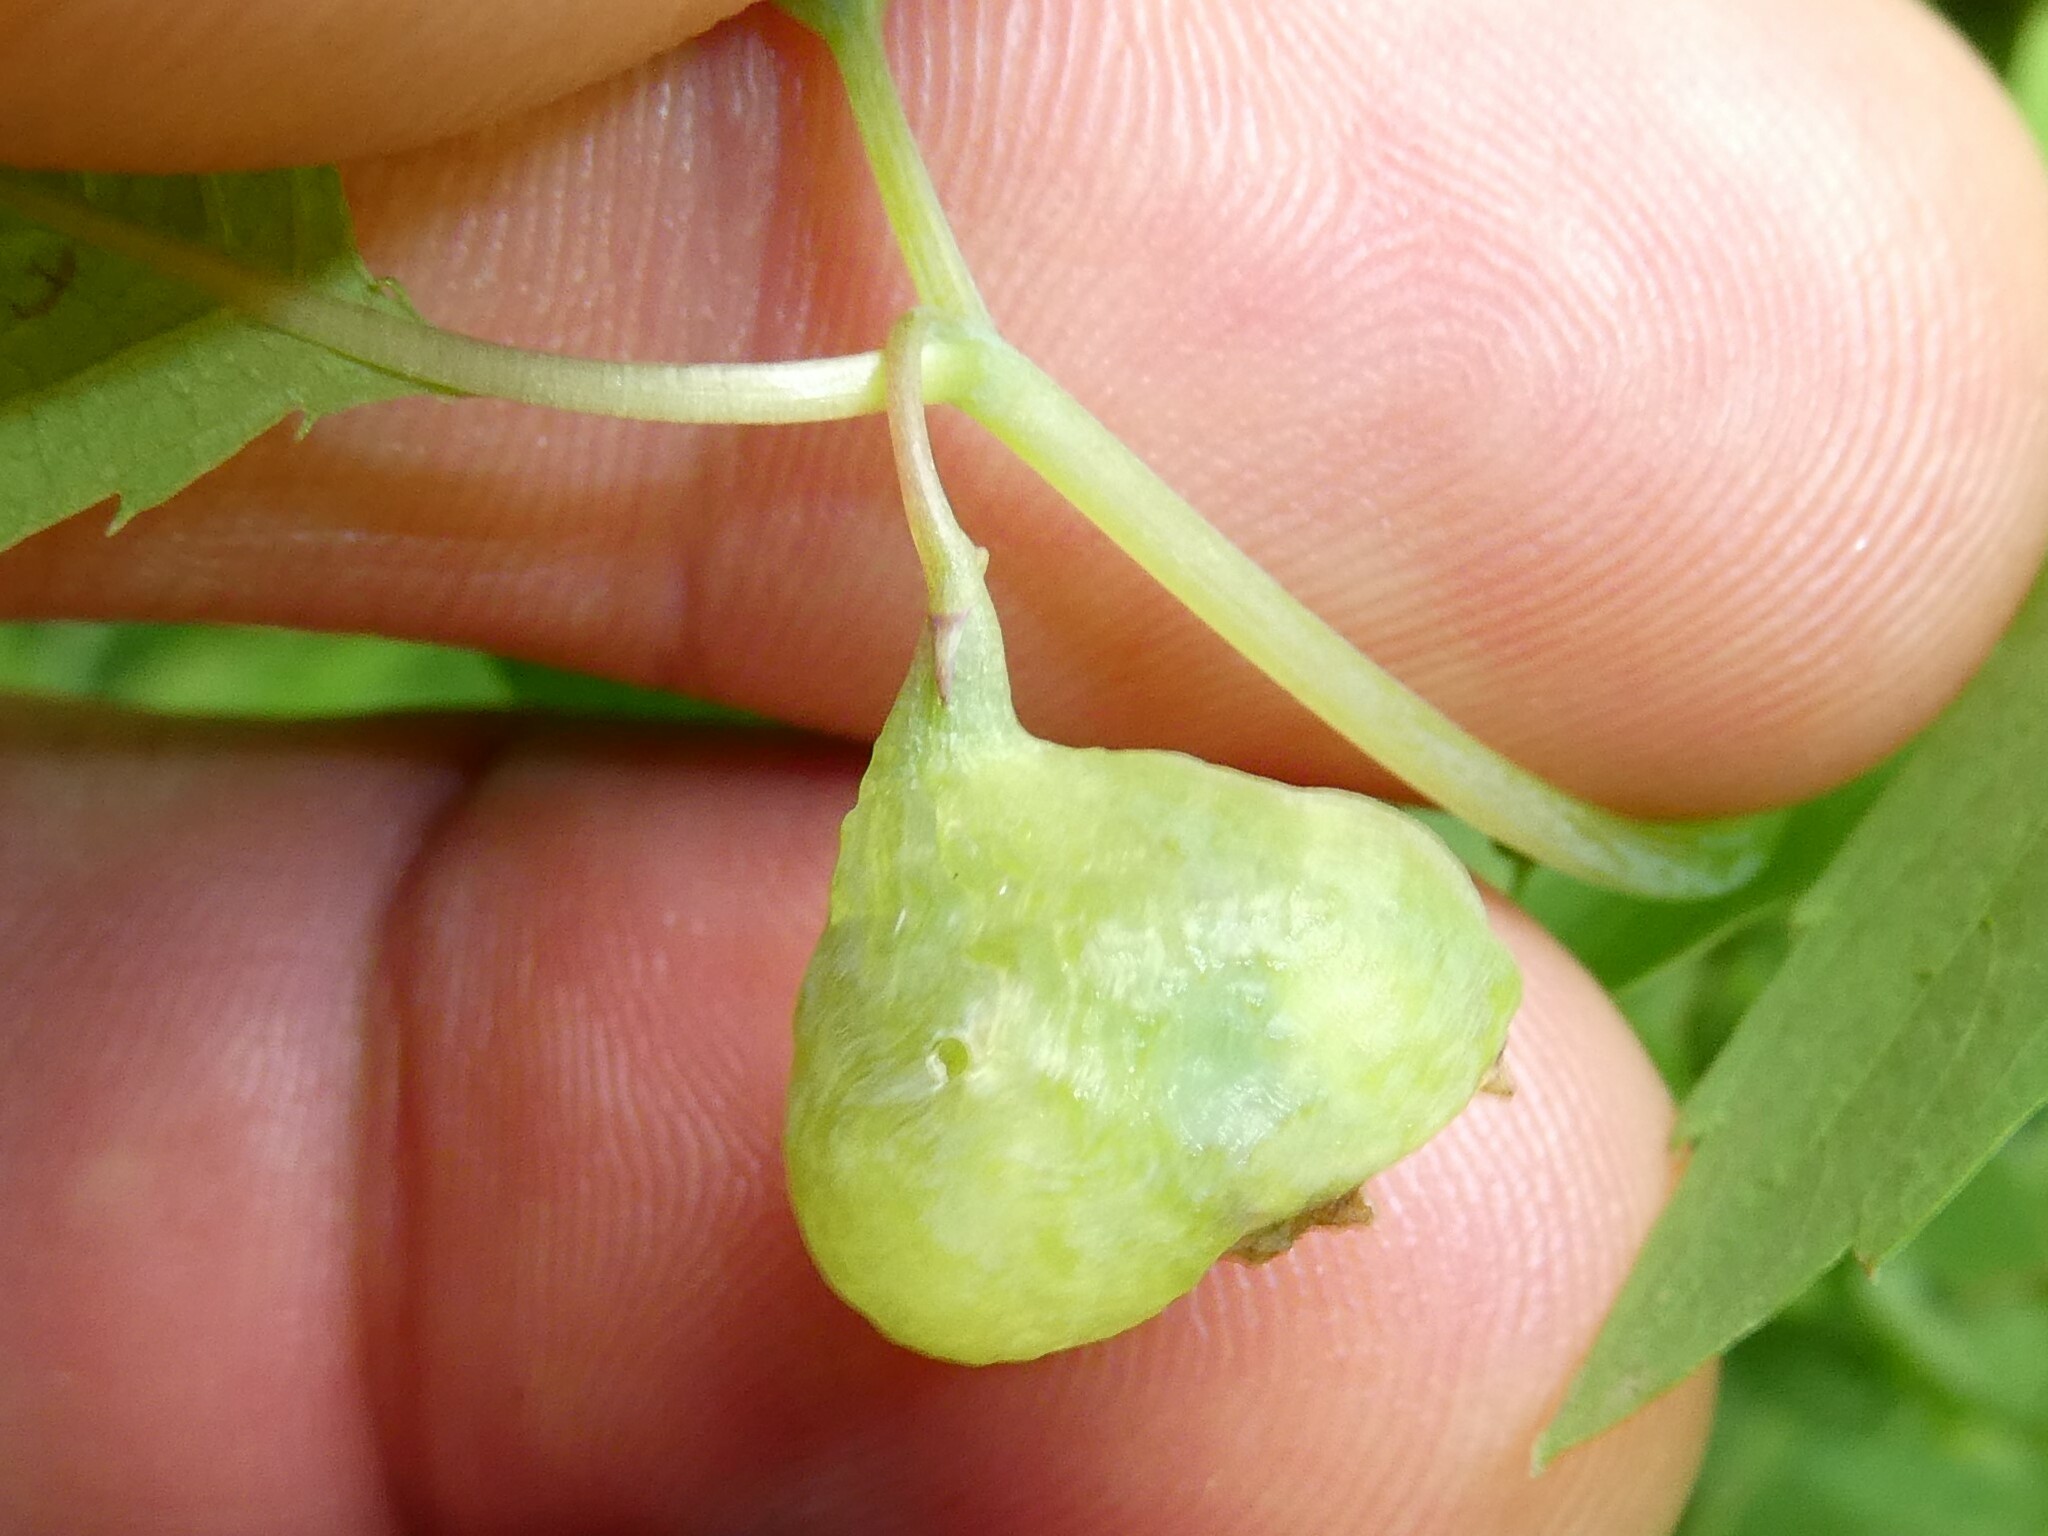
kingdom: Animalia
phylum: Arthropoda
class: Insecta
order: Diptera
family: Cecidomyiidae
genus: Schizomyia
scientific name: Schizomyia impatientis
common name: Jewelweed gall midge
